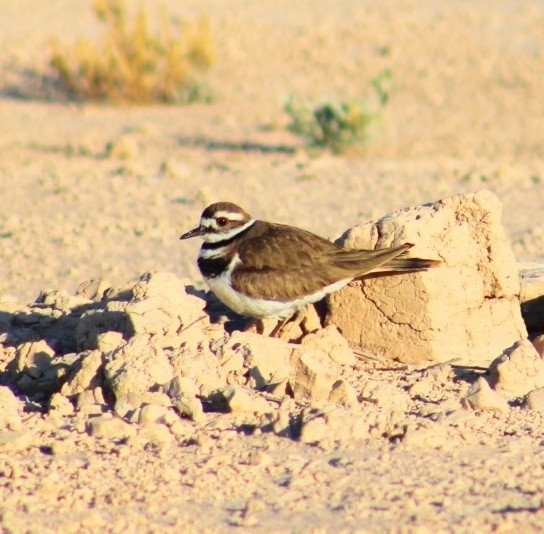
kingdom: Animalia
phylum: Chordata
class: Aves
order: Charadriiformes
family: Charadriidae
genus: Charadrius
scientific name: Charadrius vociferus
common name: Killdeer
